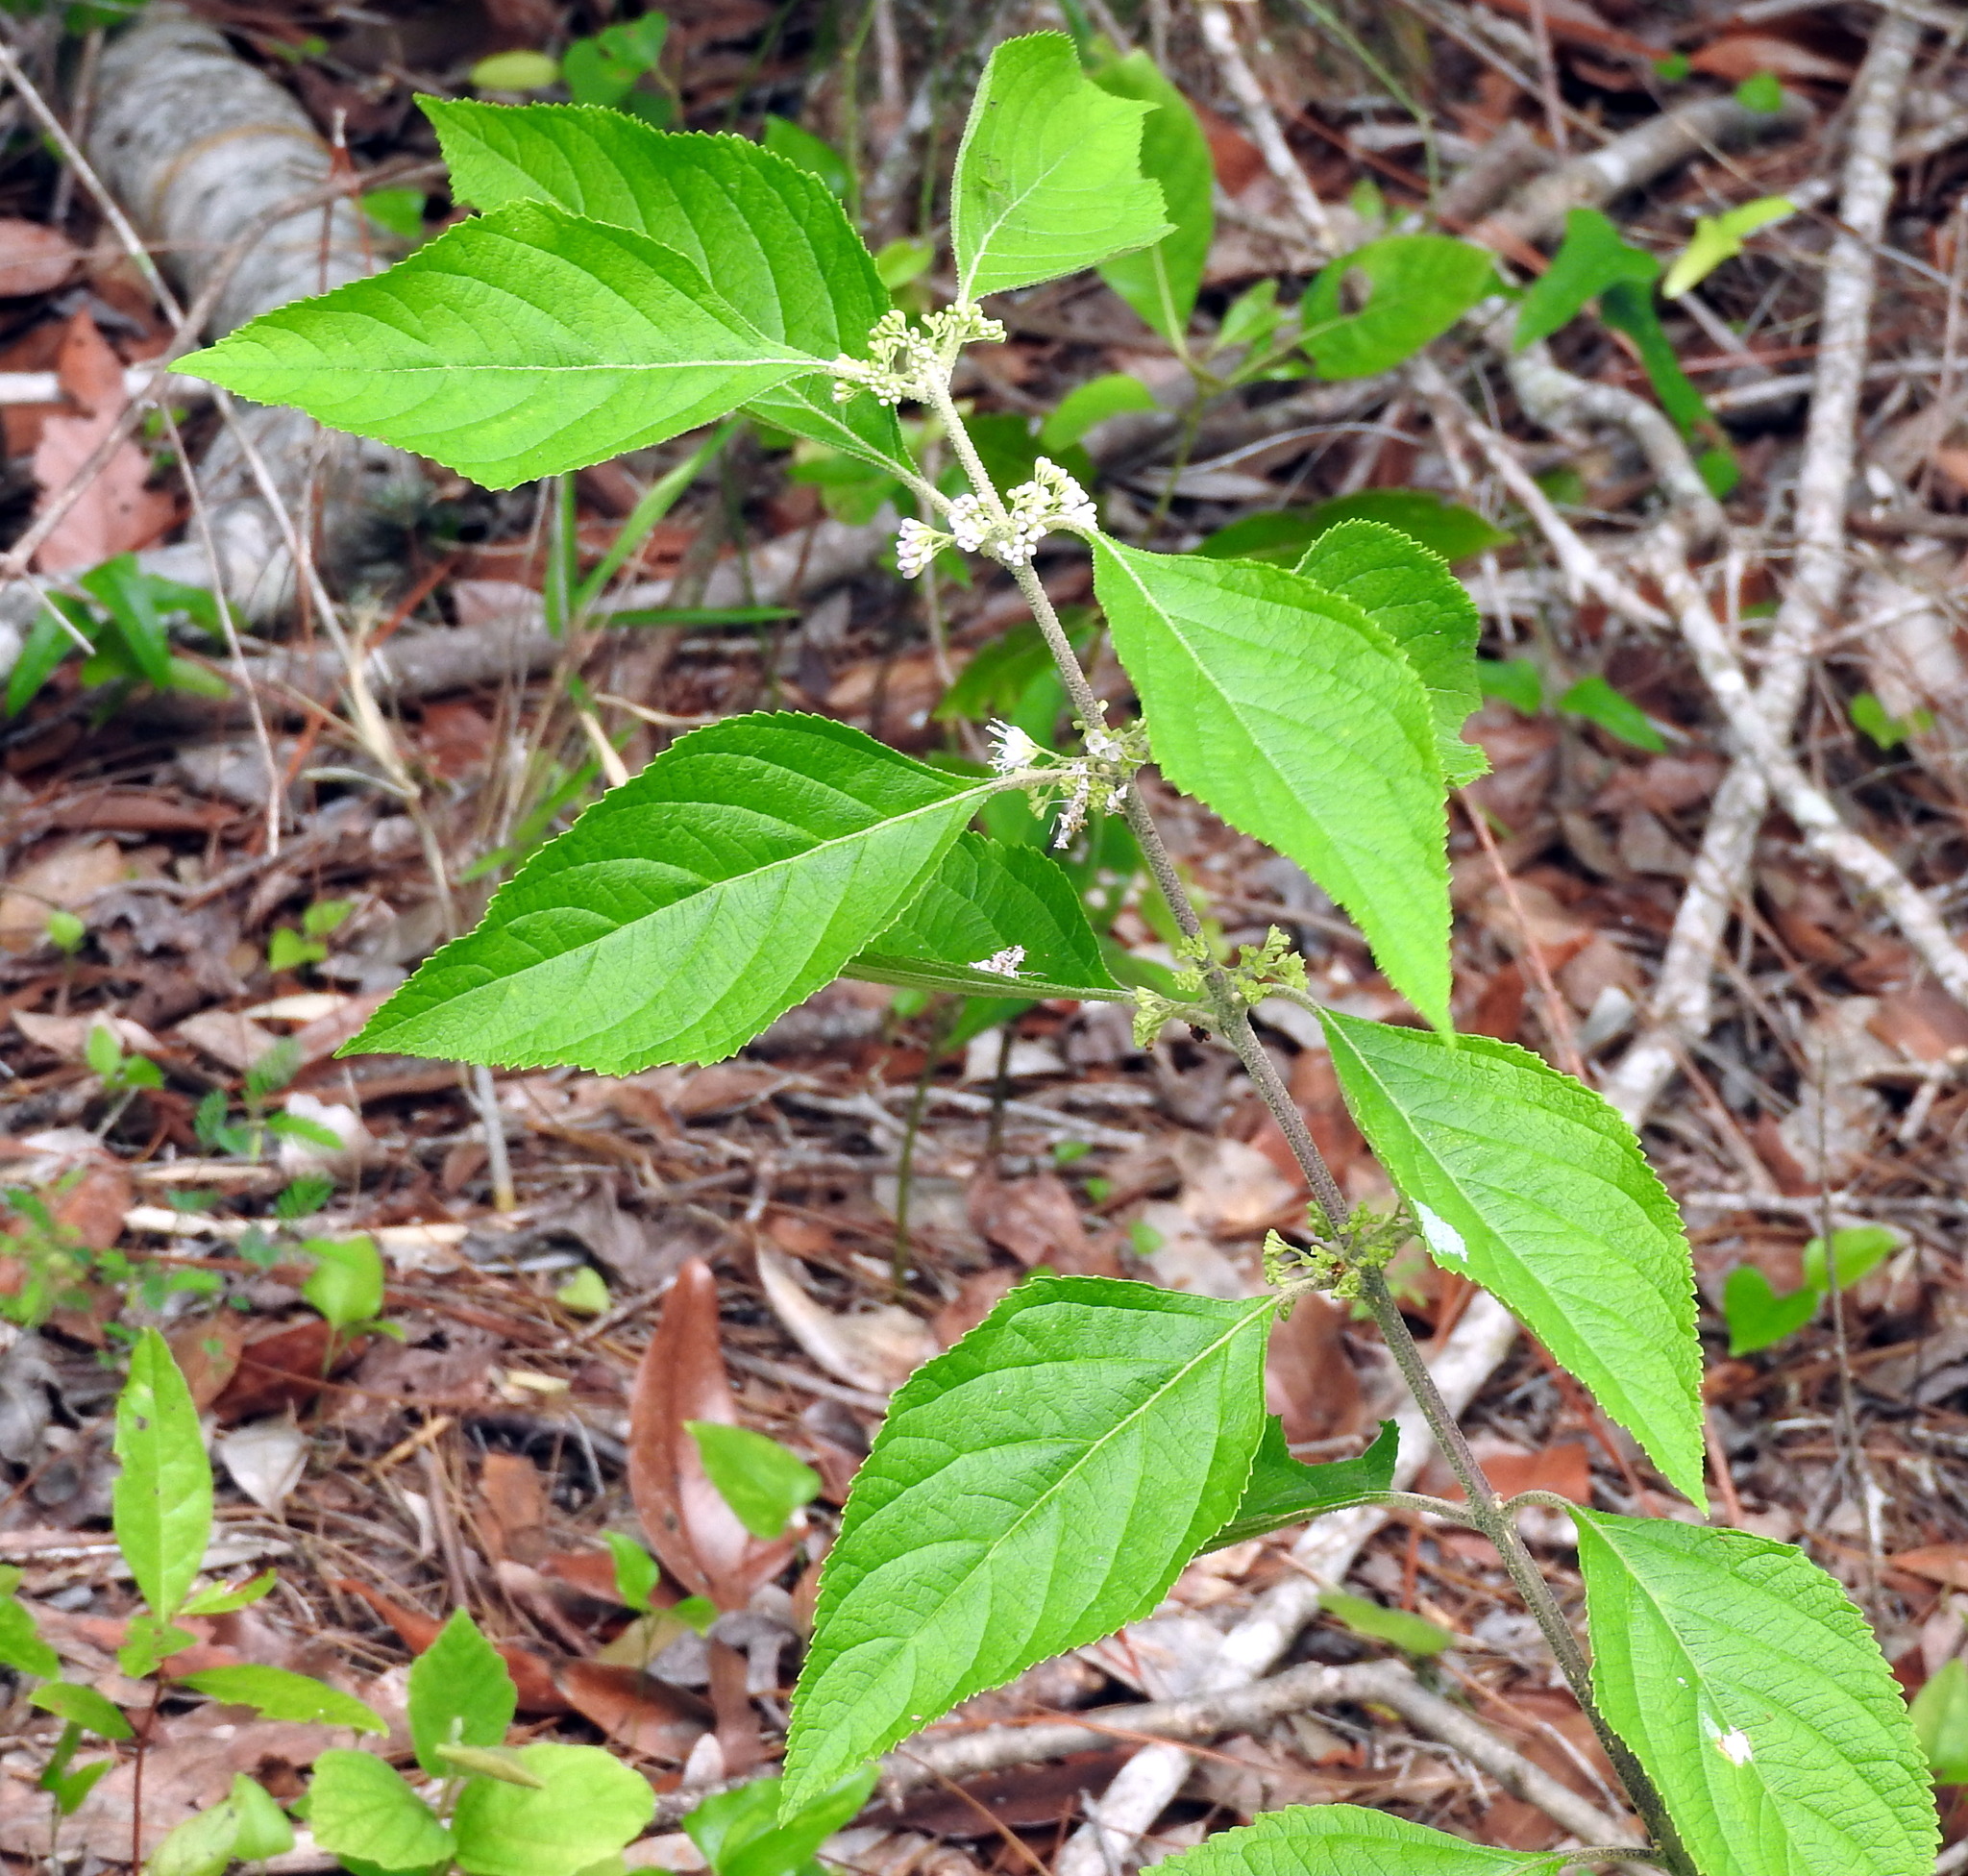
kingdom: Plantae
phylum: Tracheophyta
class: Magnoliopsida
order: Lamiales
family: Lamiaceae
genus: Callicarpa
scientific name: Callicarpa americana
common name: American beautyberry
